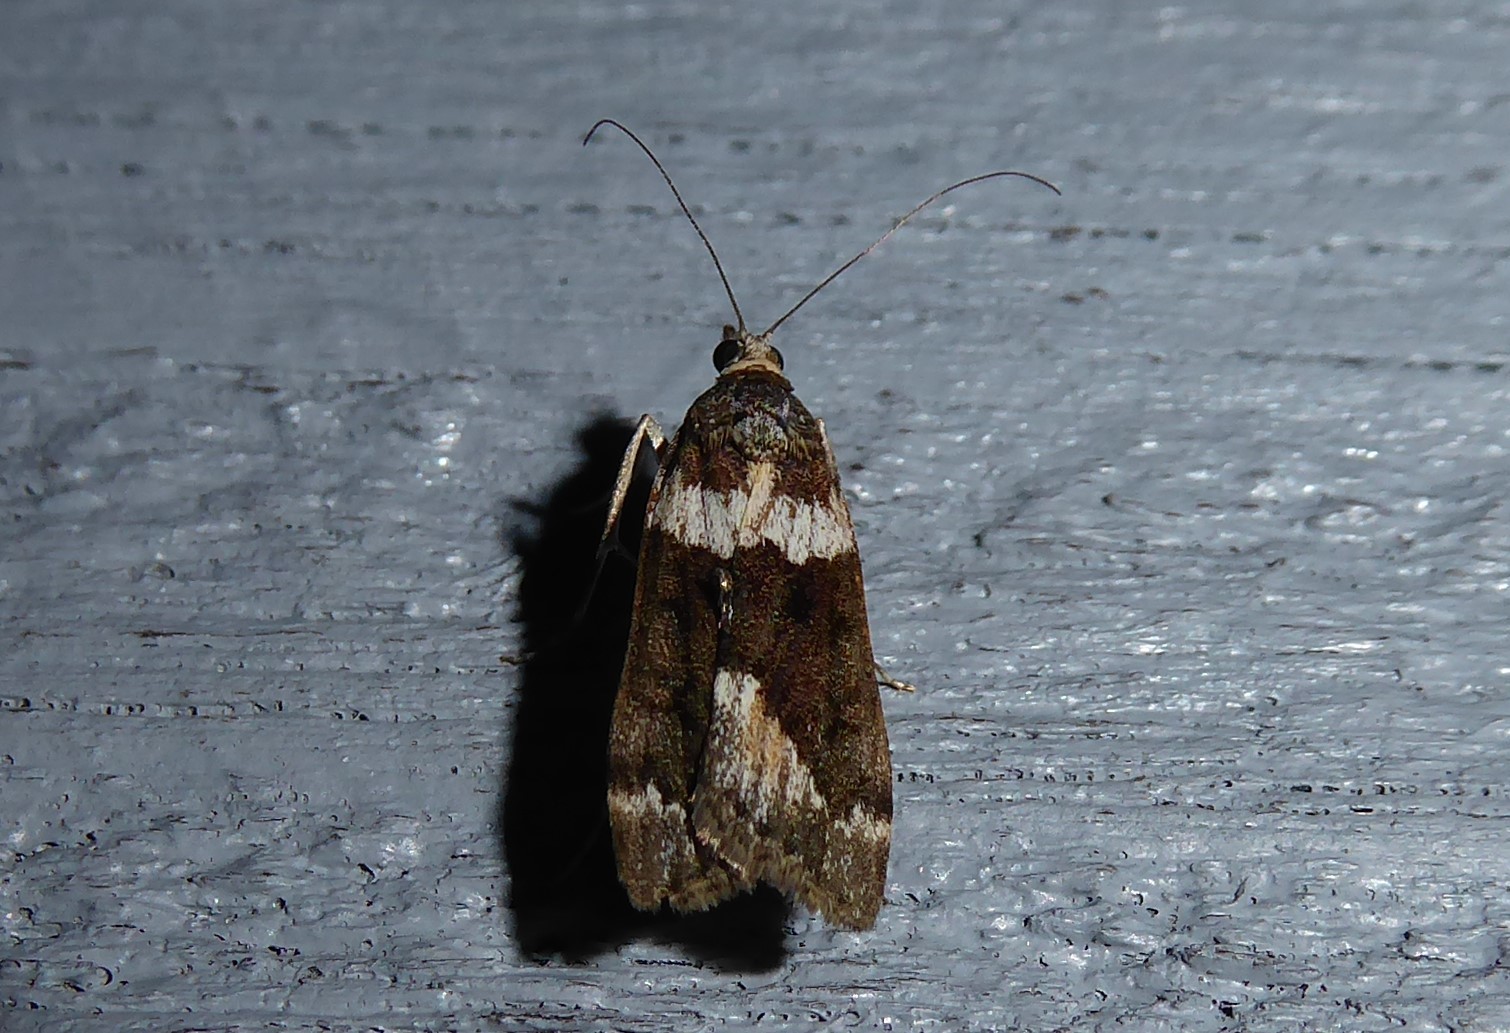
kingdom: Animalia
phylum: Arthropoda
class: Insecta
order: Lepidoptera
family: Crambidae
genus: Eudonia
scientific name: Eudonia submarginalis
